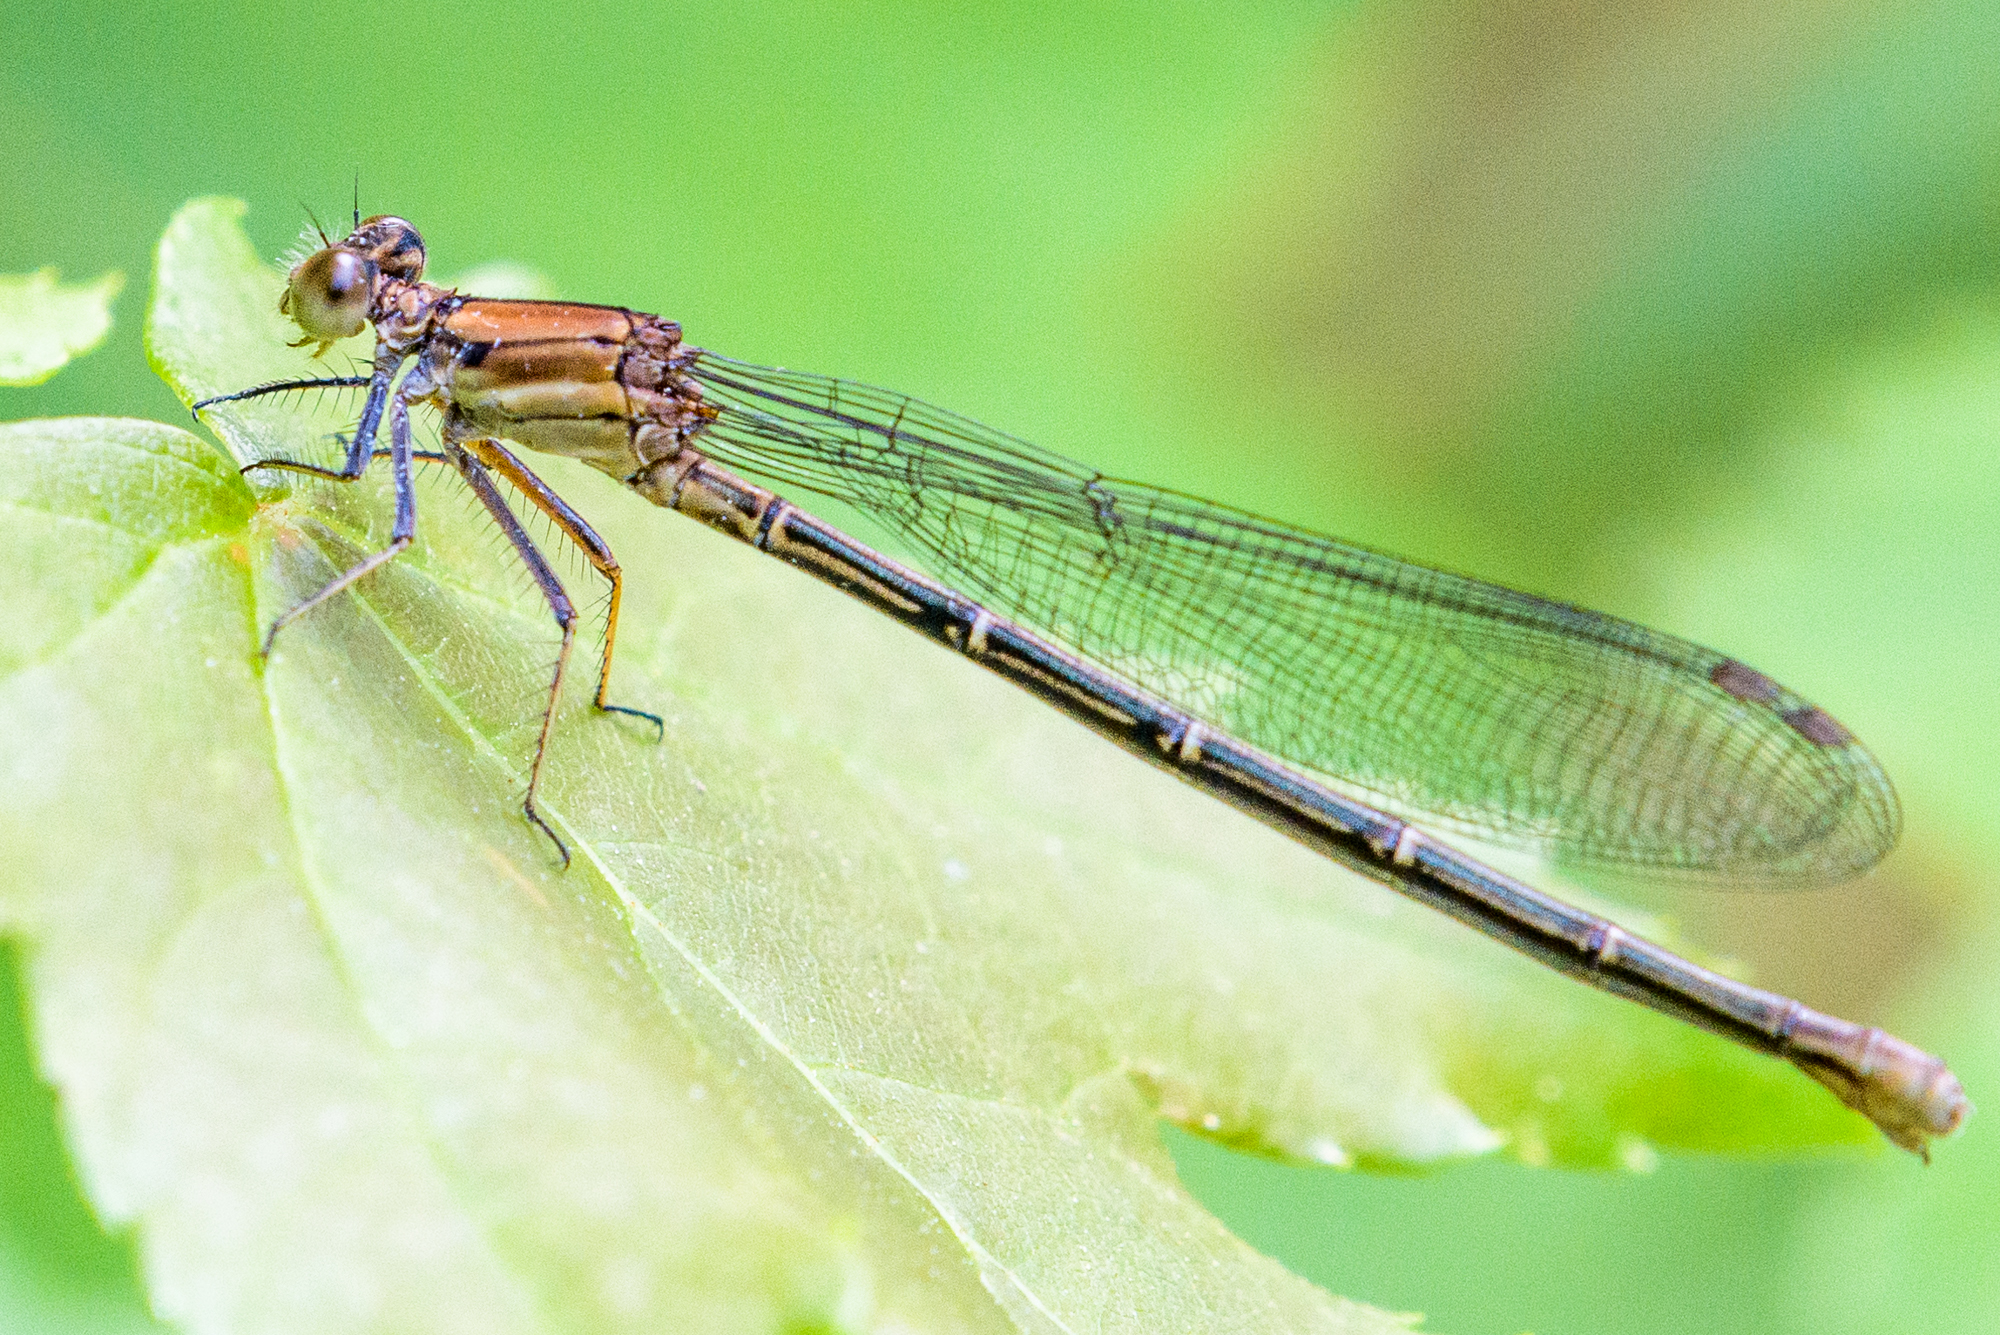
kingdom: Animalia
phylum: Arthropoda
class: Insecta
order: Odonata
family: Coenagrionidae
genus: Argia
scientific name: Argia moesta
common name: Powdered dancer
